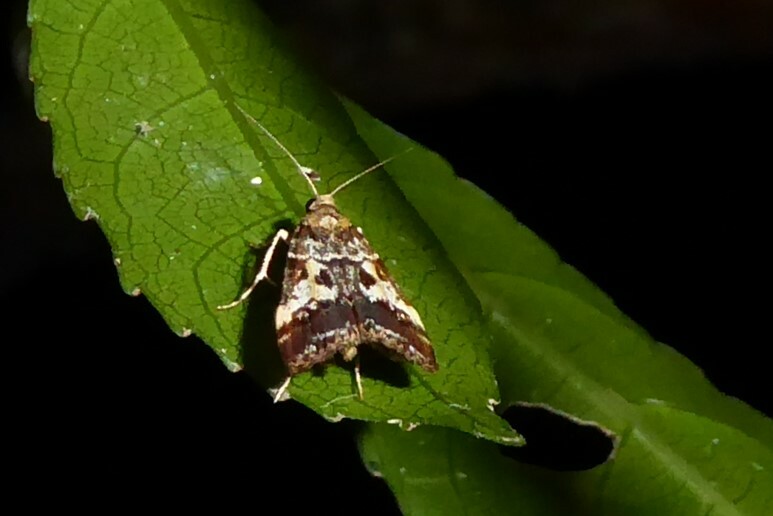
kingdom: Animalia
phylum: Arthropoda
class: Insecta
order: Lepidoptera
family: Crambidae
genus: Eudonia
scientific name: Eudonia characta
